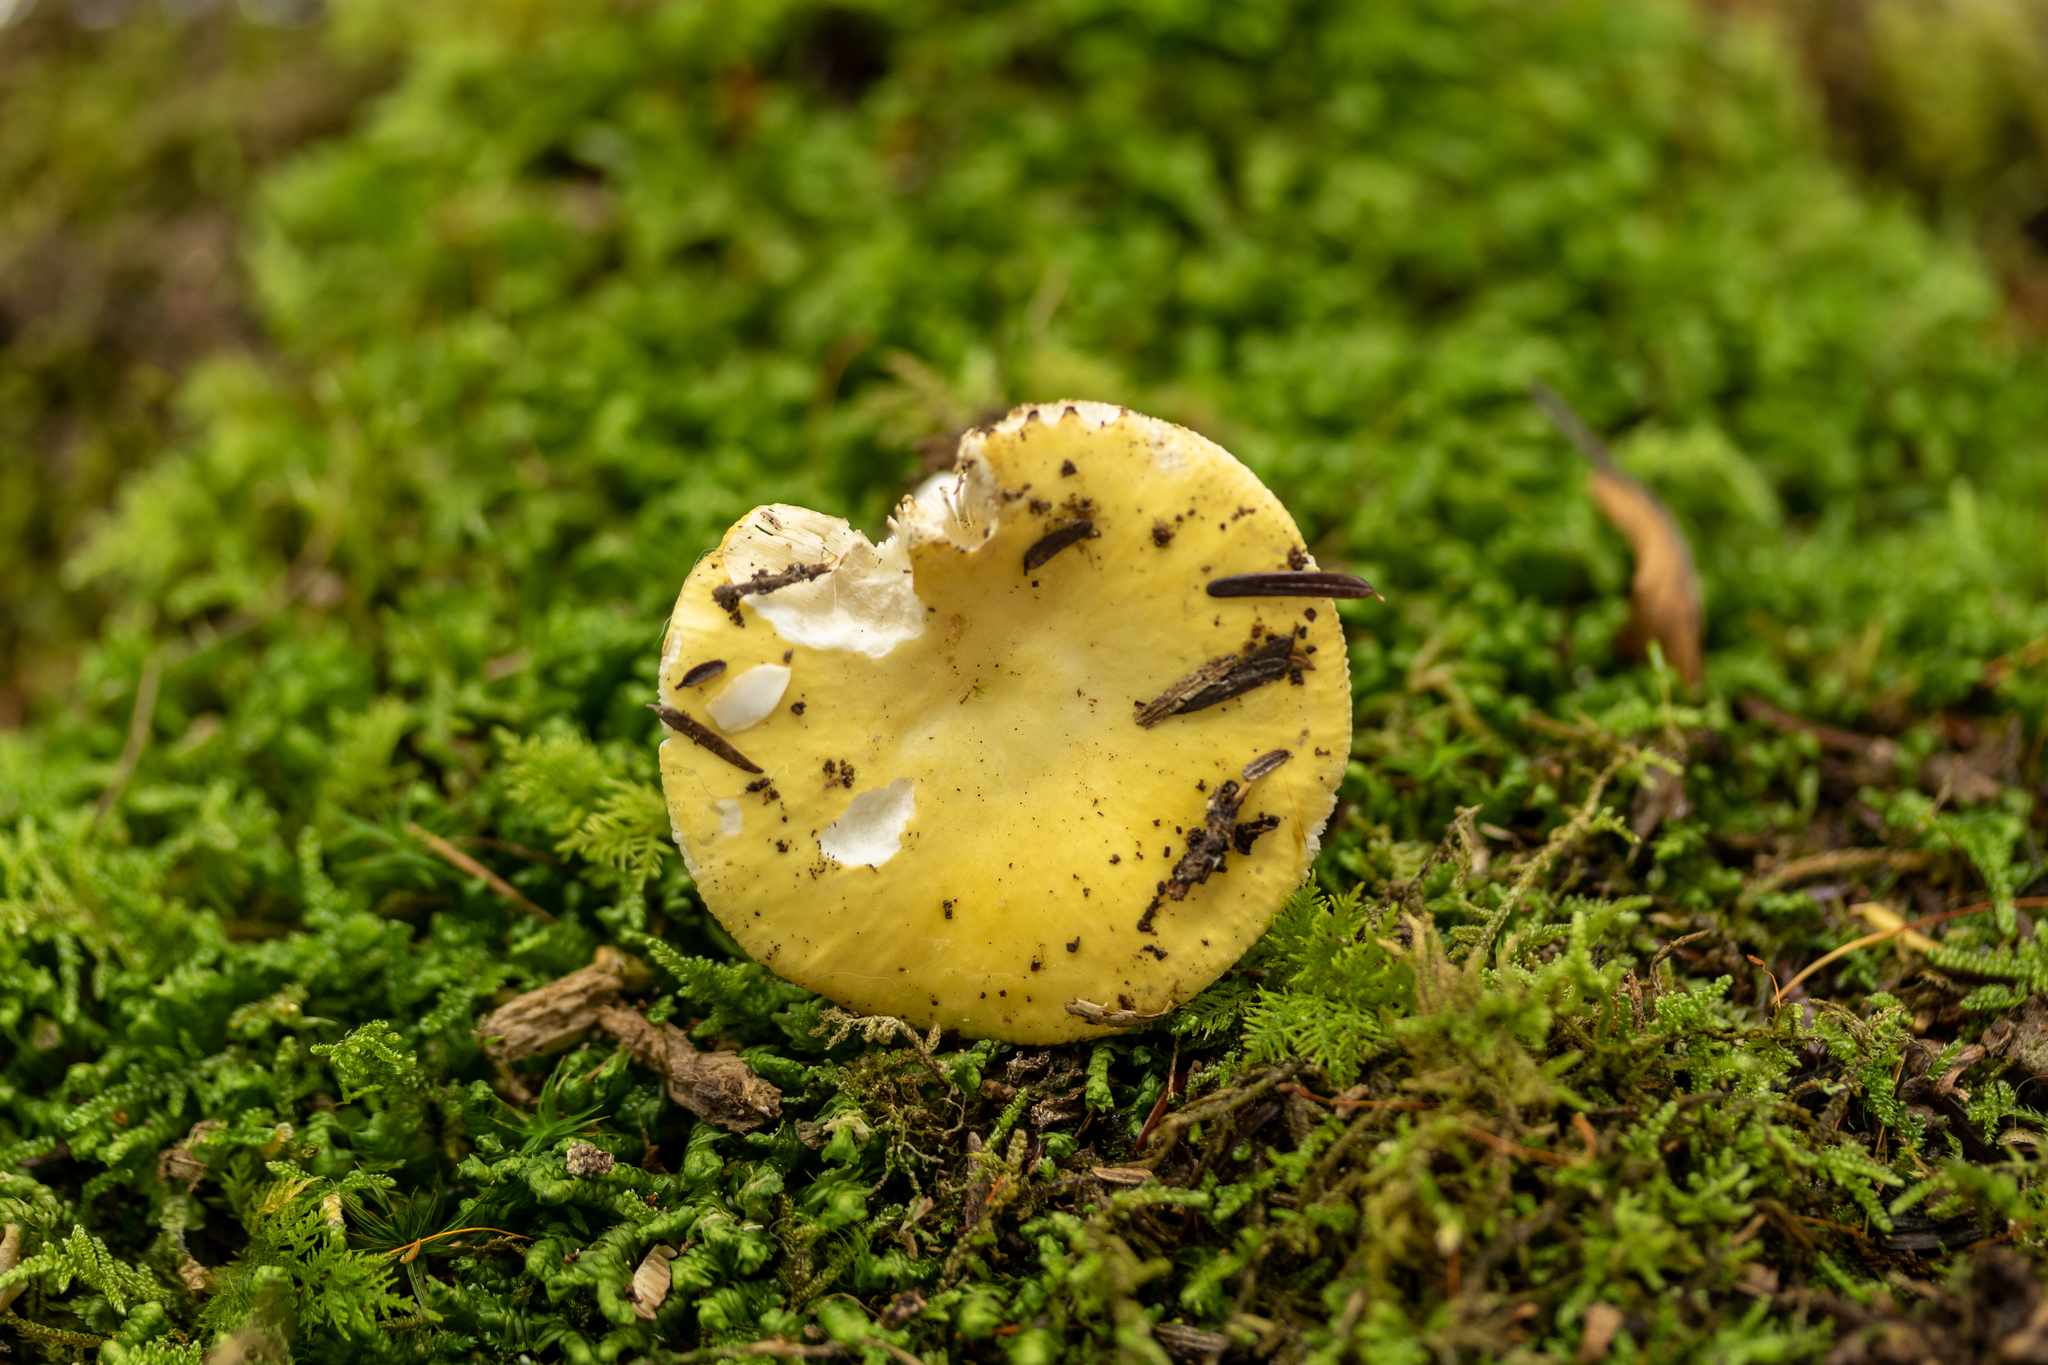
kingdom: Fungi
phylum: Basidiomycota
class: Agaricomycetes
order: Russulales
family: Russulaceae
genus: Russula
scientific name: Russula claroflava
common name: The yellow swamp brittlegill
